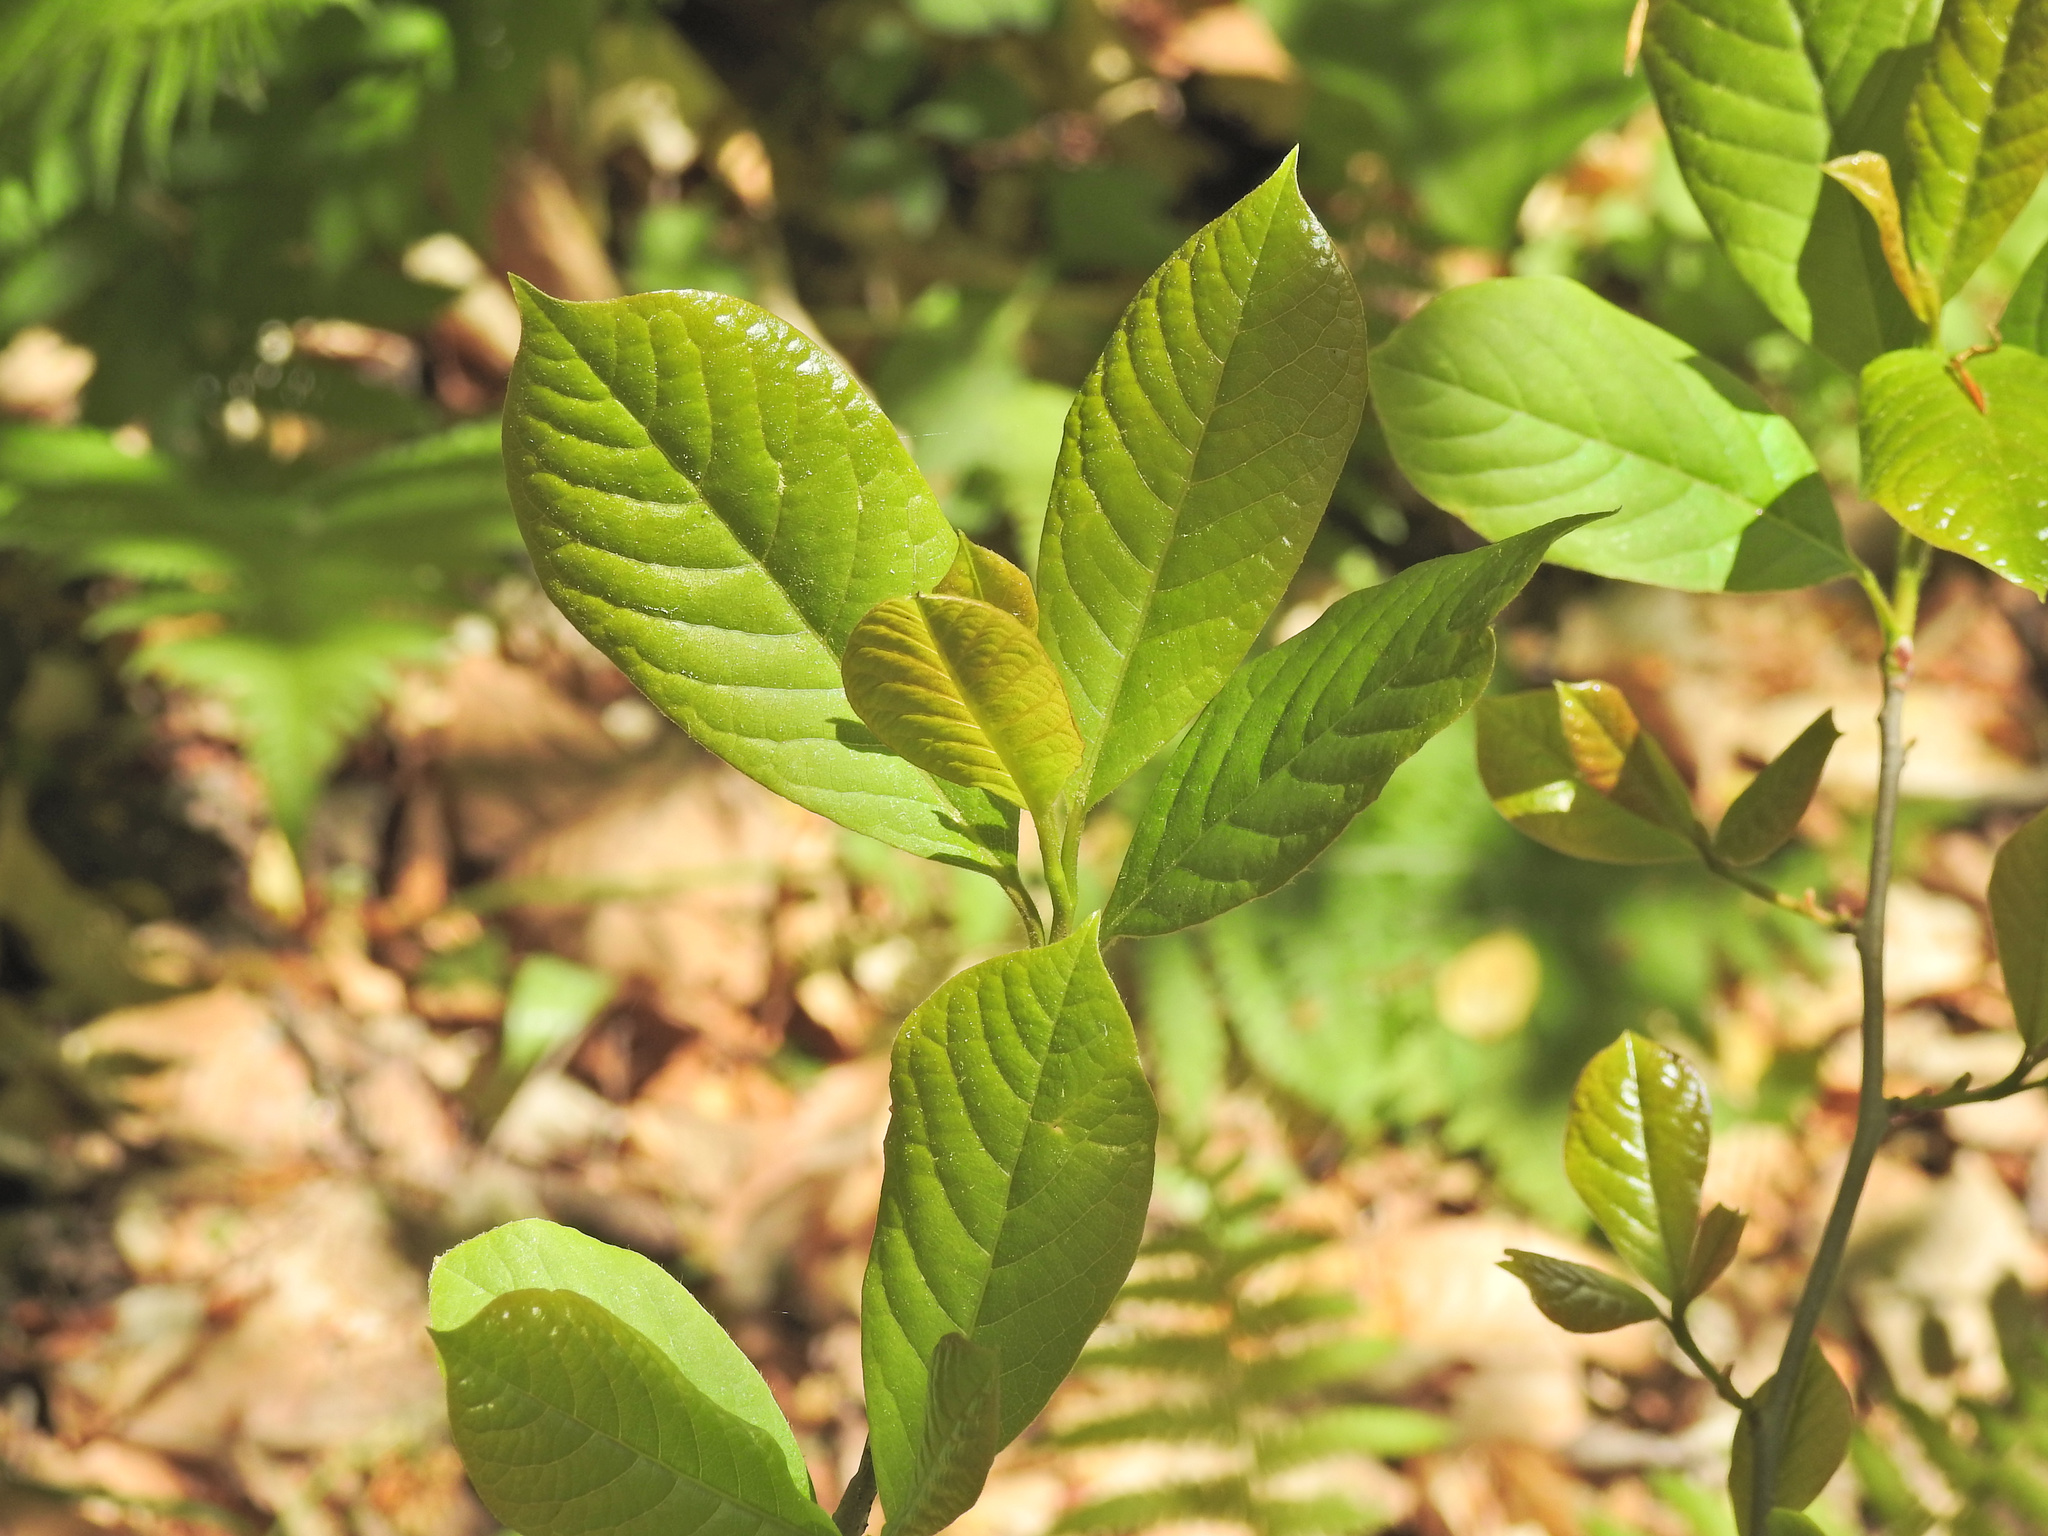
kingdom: Plantae
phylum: Tracheophyta
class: Magnoliopsida
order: Cornales
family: Nyssaceae
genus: Nyssa
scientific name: Nyssa sylvatica
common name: Black tupelo
